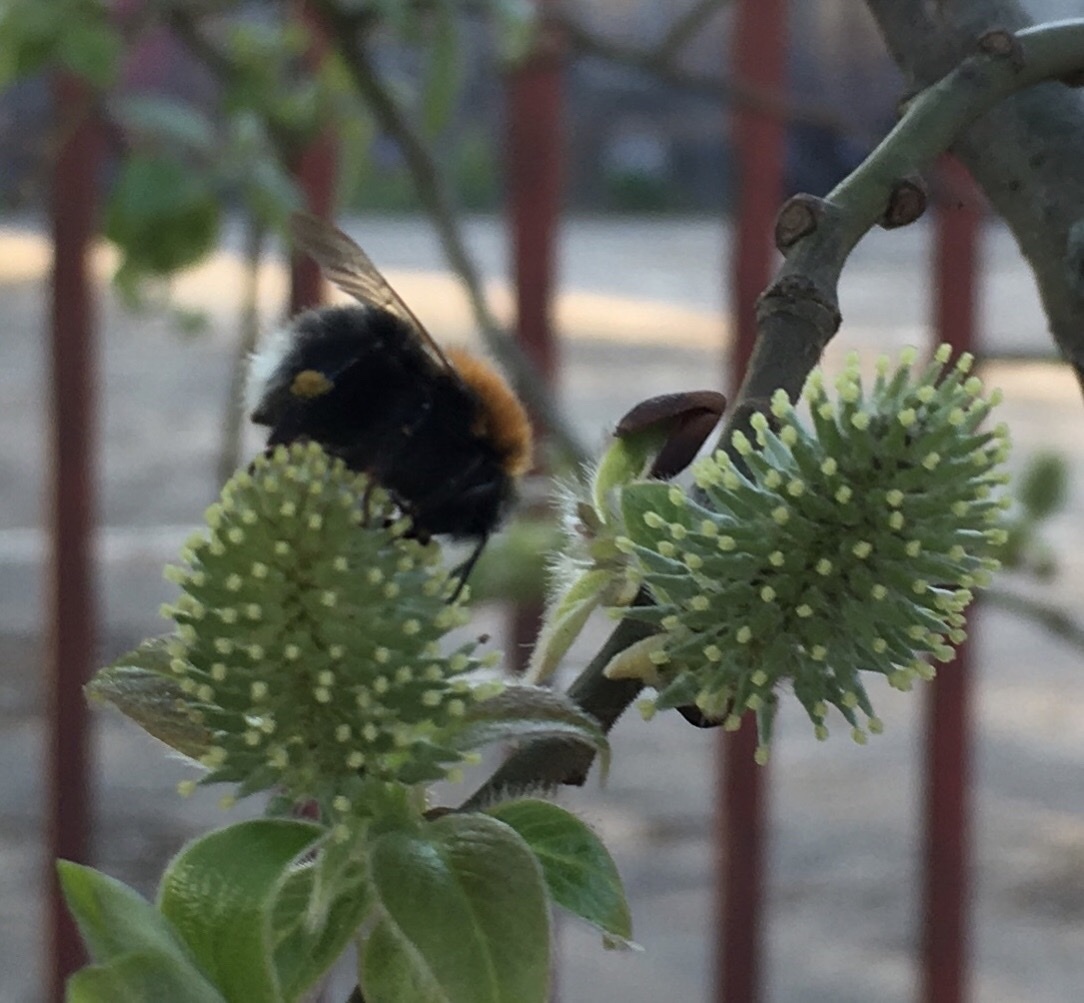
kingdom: Animalia
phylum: Arthropoda
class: Insecta
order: Hymenoptera
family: Apidae
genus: Bombus
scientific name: Bombus hypnorum
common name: New garden bumblebee
